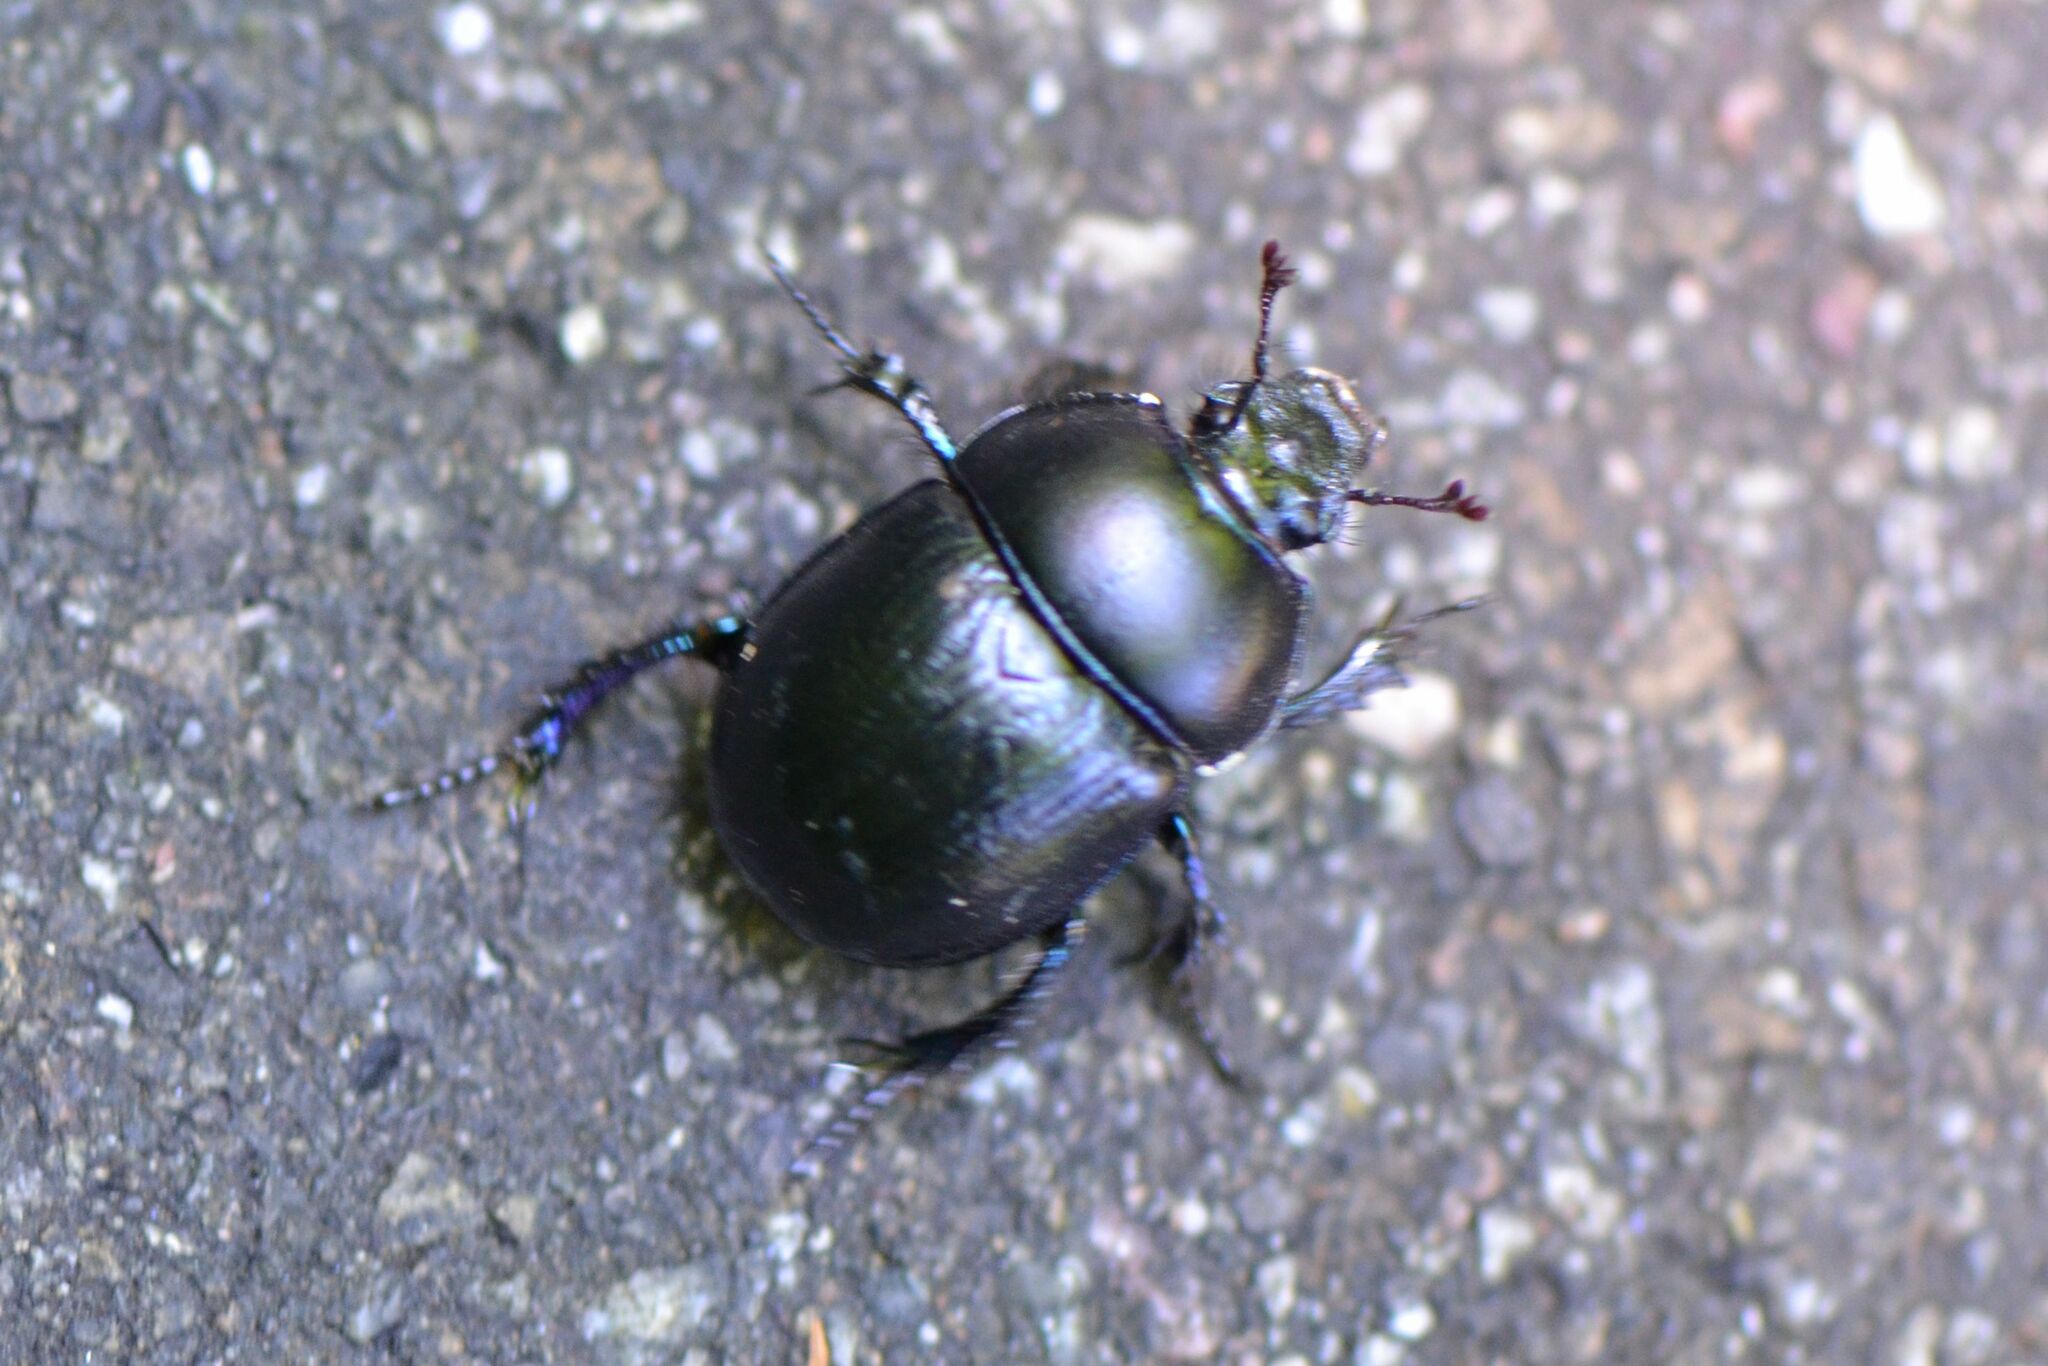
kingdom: Animalia
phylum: Arthropoda
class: Insecta
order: Coleoptera
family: Geotrupidae
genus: Anoplotrupes
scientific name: Anoplotrupes stercorosus
